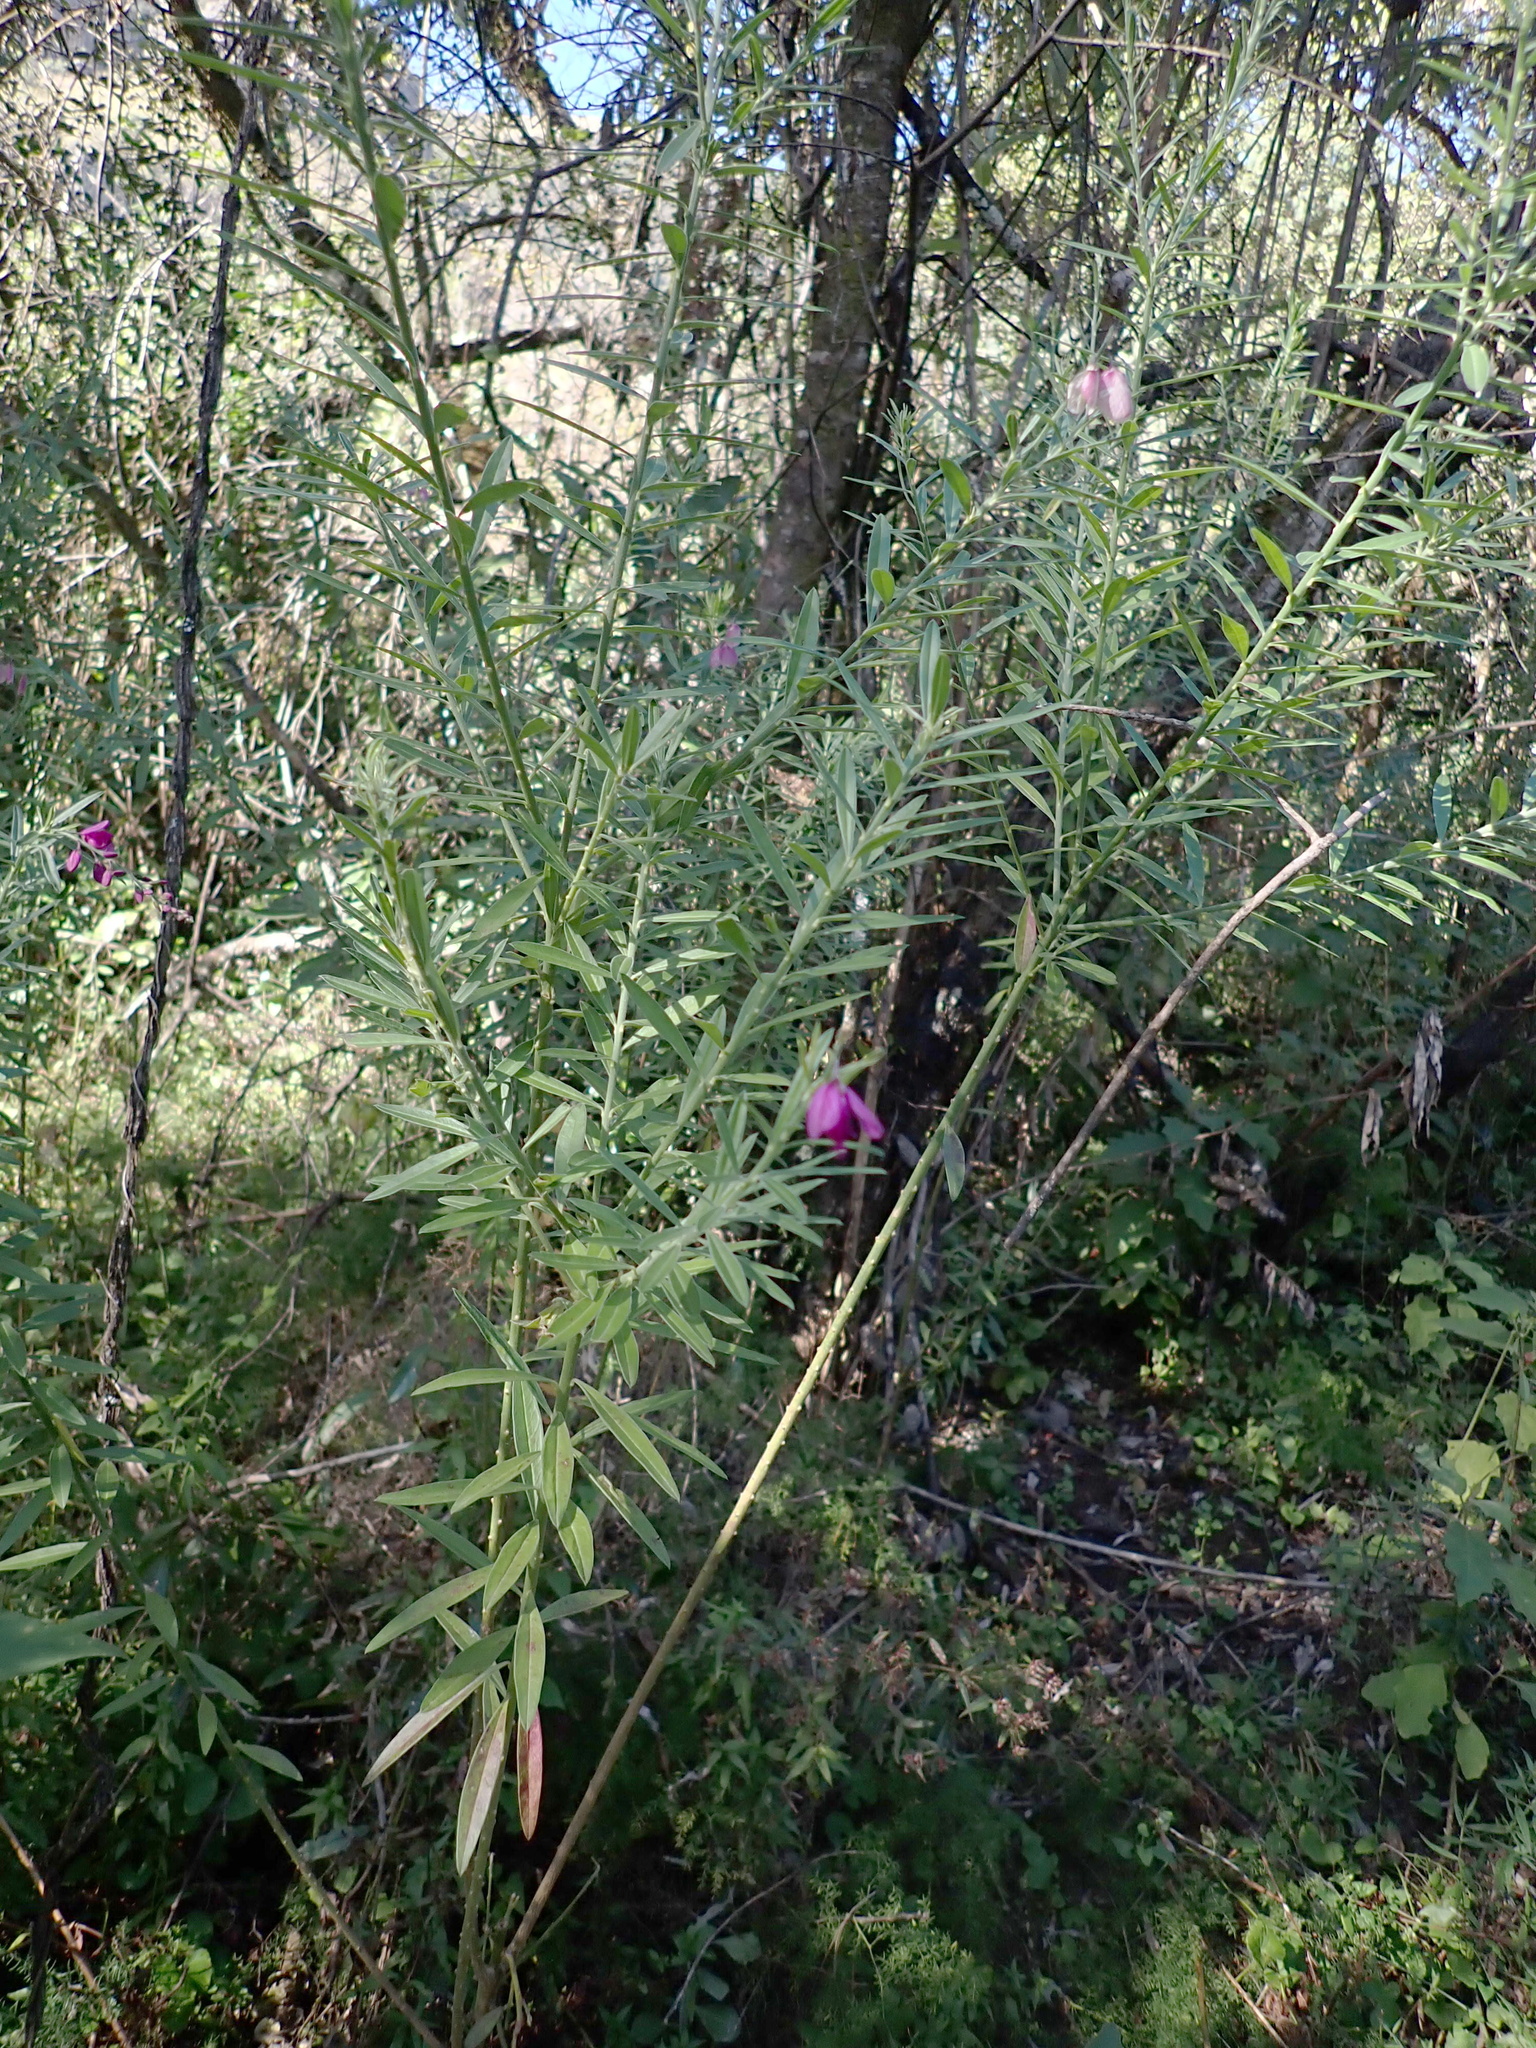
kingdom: Plantae
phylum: Tracheophyta
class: Magnoliopsida
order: Fabales
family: Polygalaceae
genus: Polygala
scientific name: Polygala virgata
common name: Milkwort
